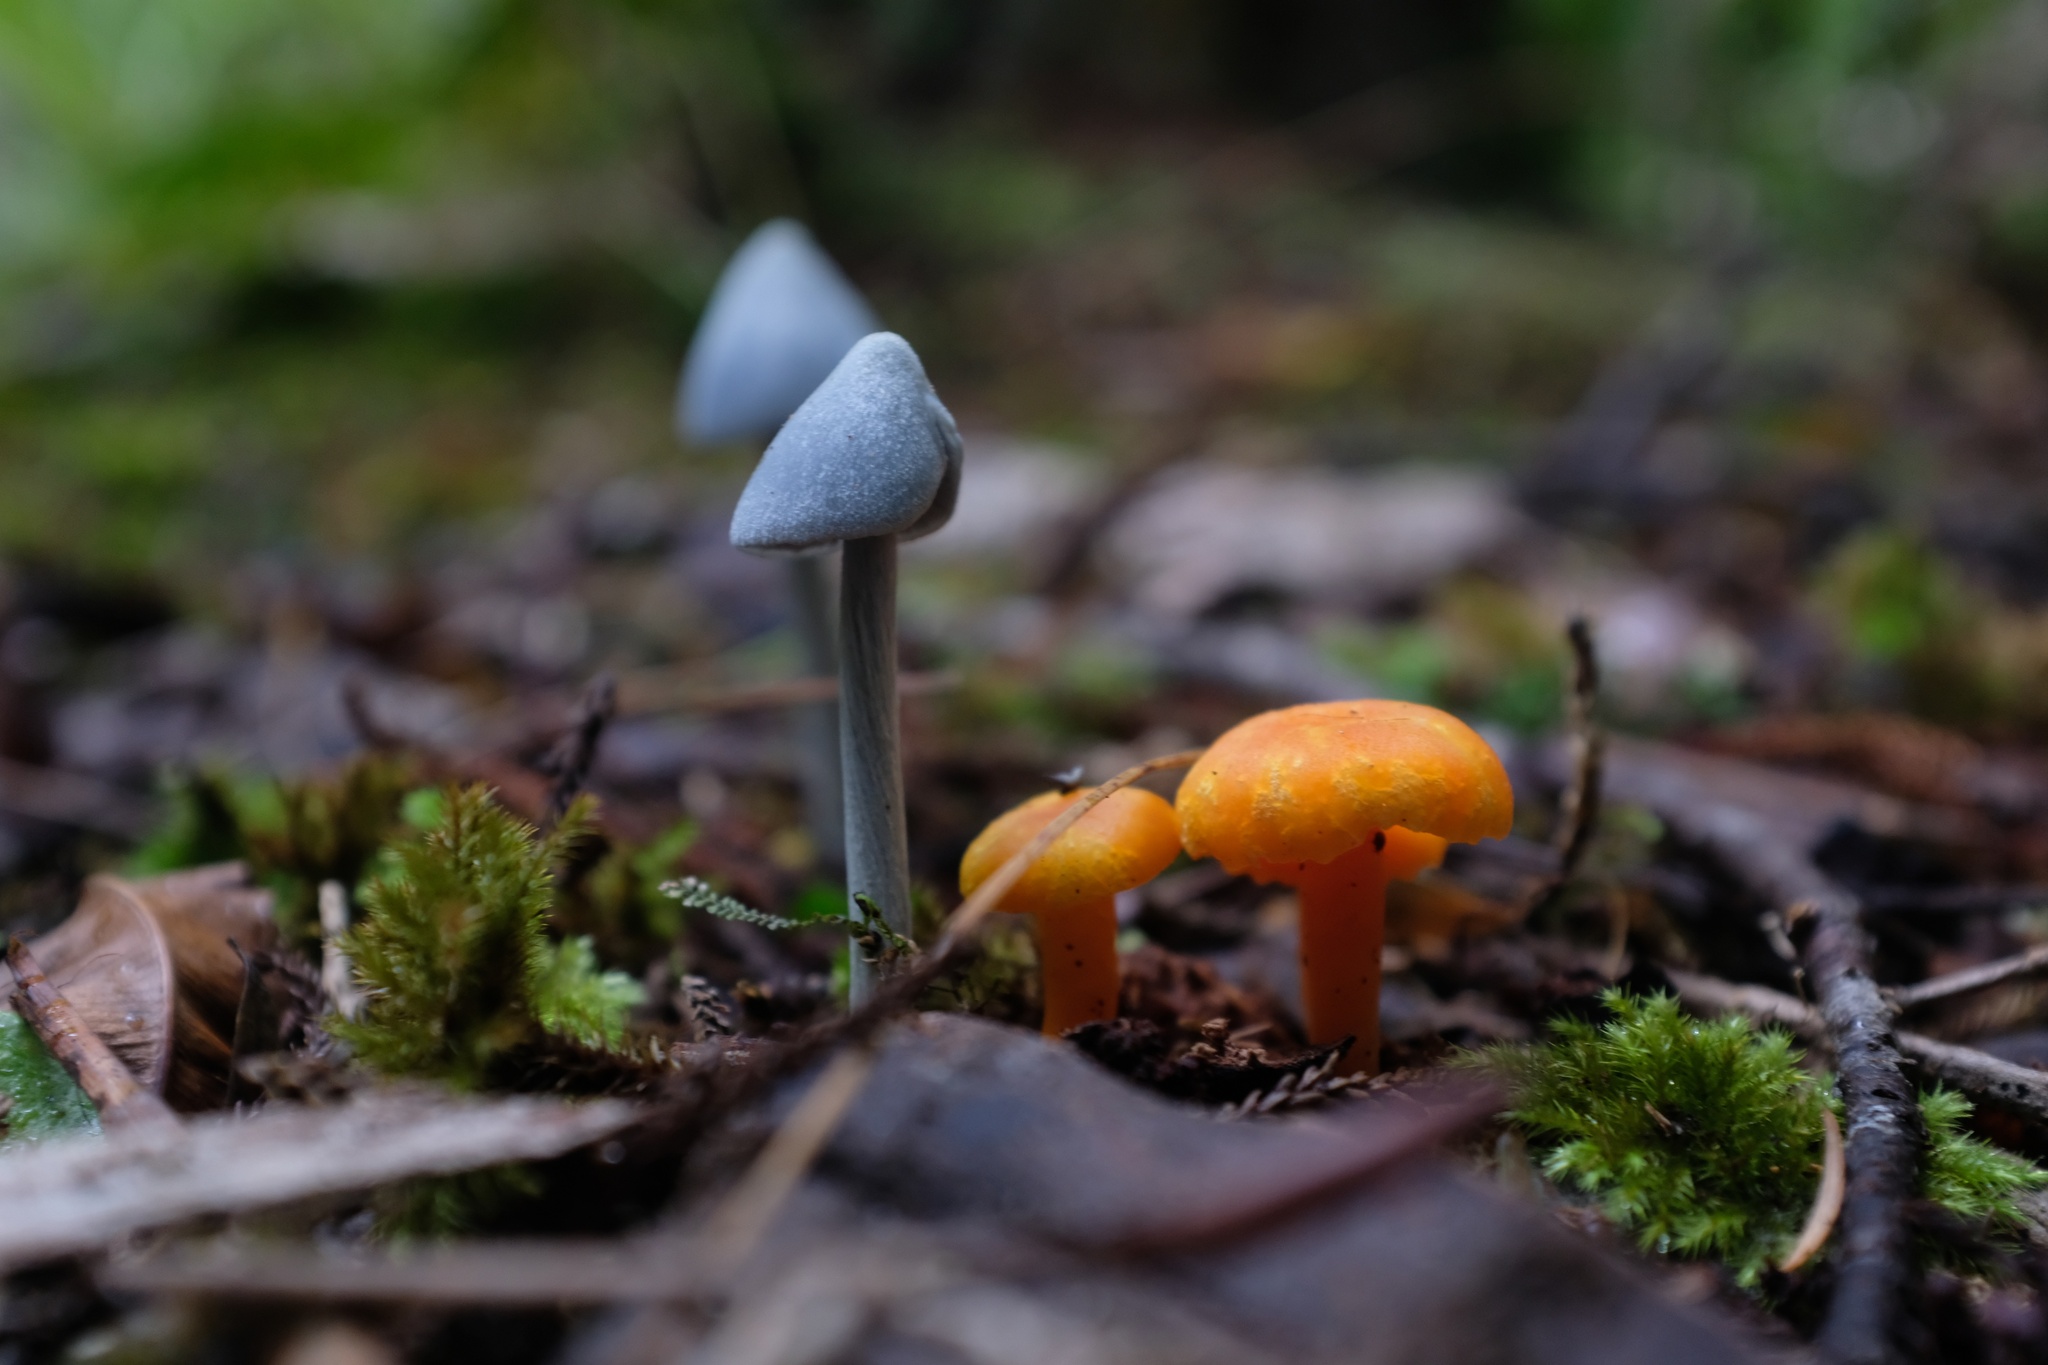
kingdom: Fungi
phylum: Basidiomycota
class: Agaricomycetes
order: Agaricales
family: Entolomataceae
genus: Entoloma
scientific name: Entoloma hochstetteri
